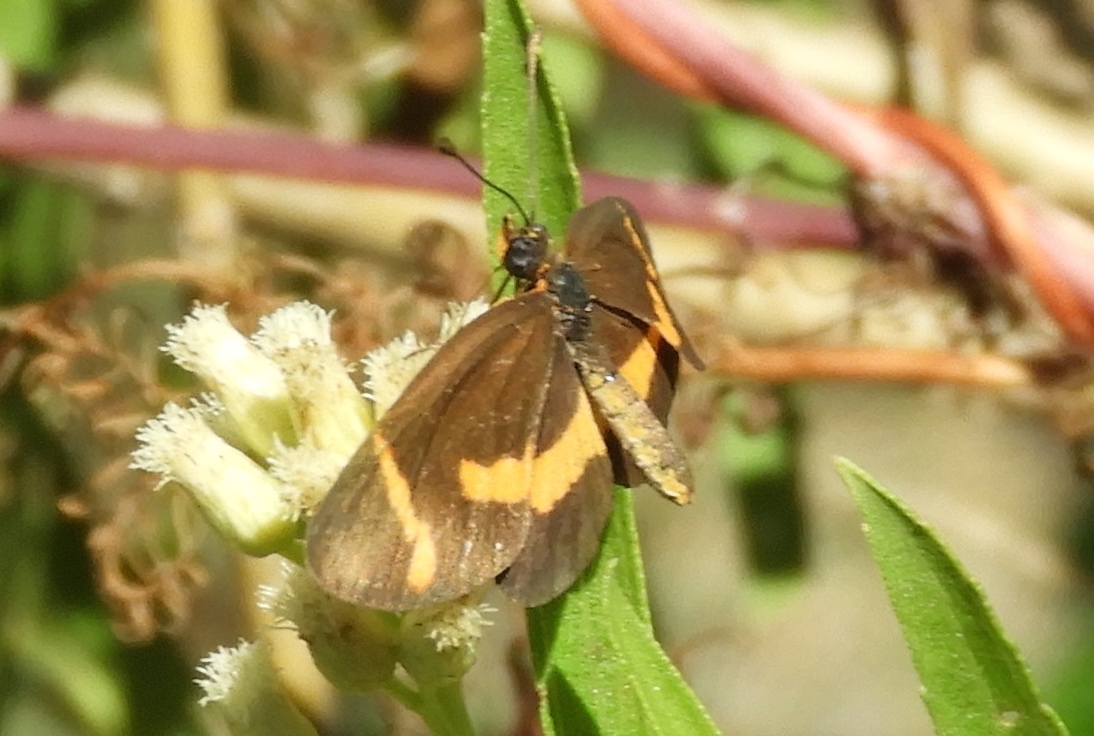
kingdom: Animalia
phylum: Arthropoda
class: Insecta
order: Lepidoptera
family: Nymphalidae
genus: Microtia
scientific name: Microtia elva
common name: Elf
